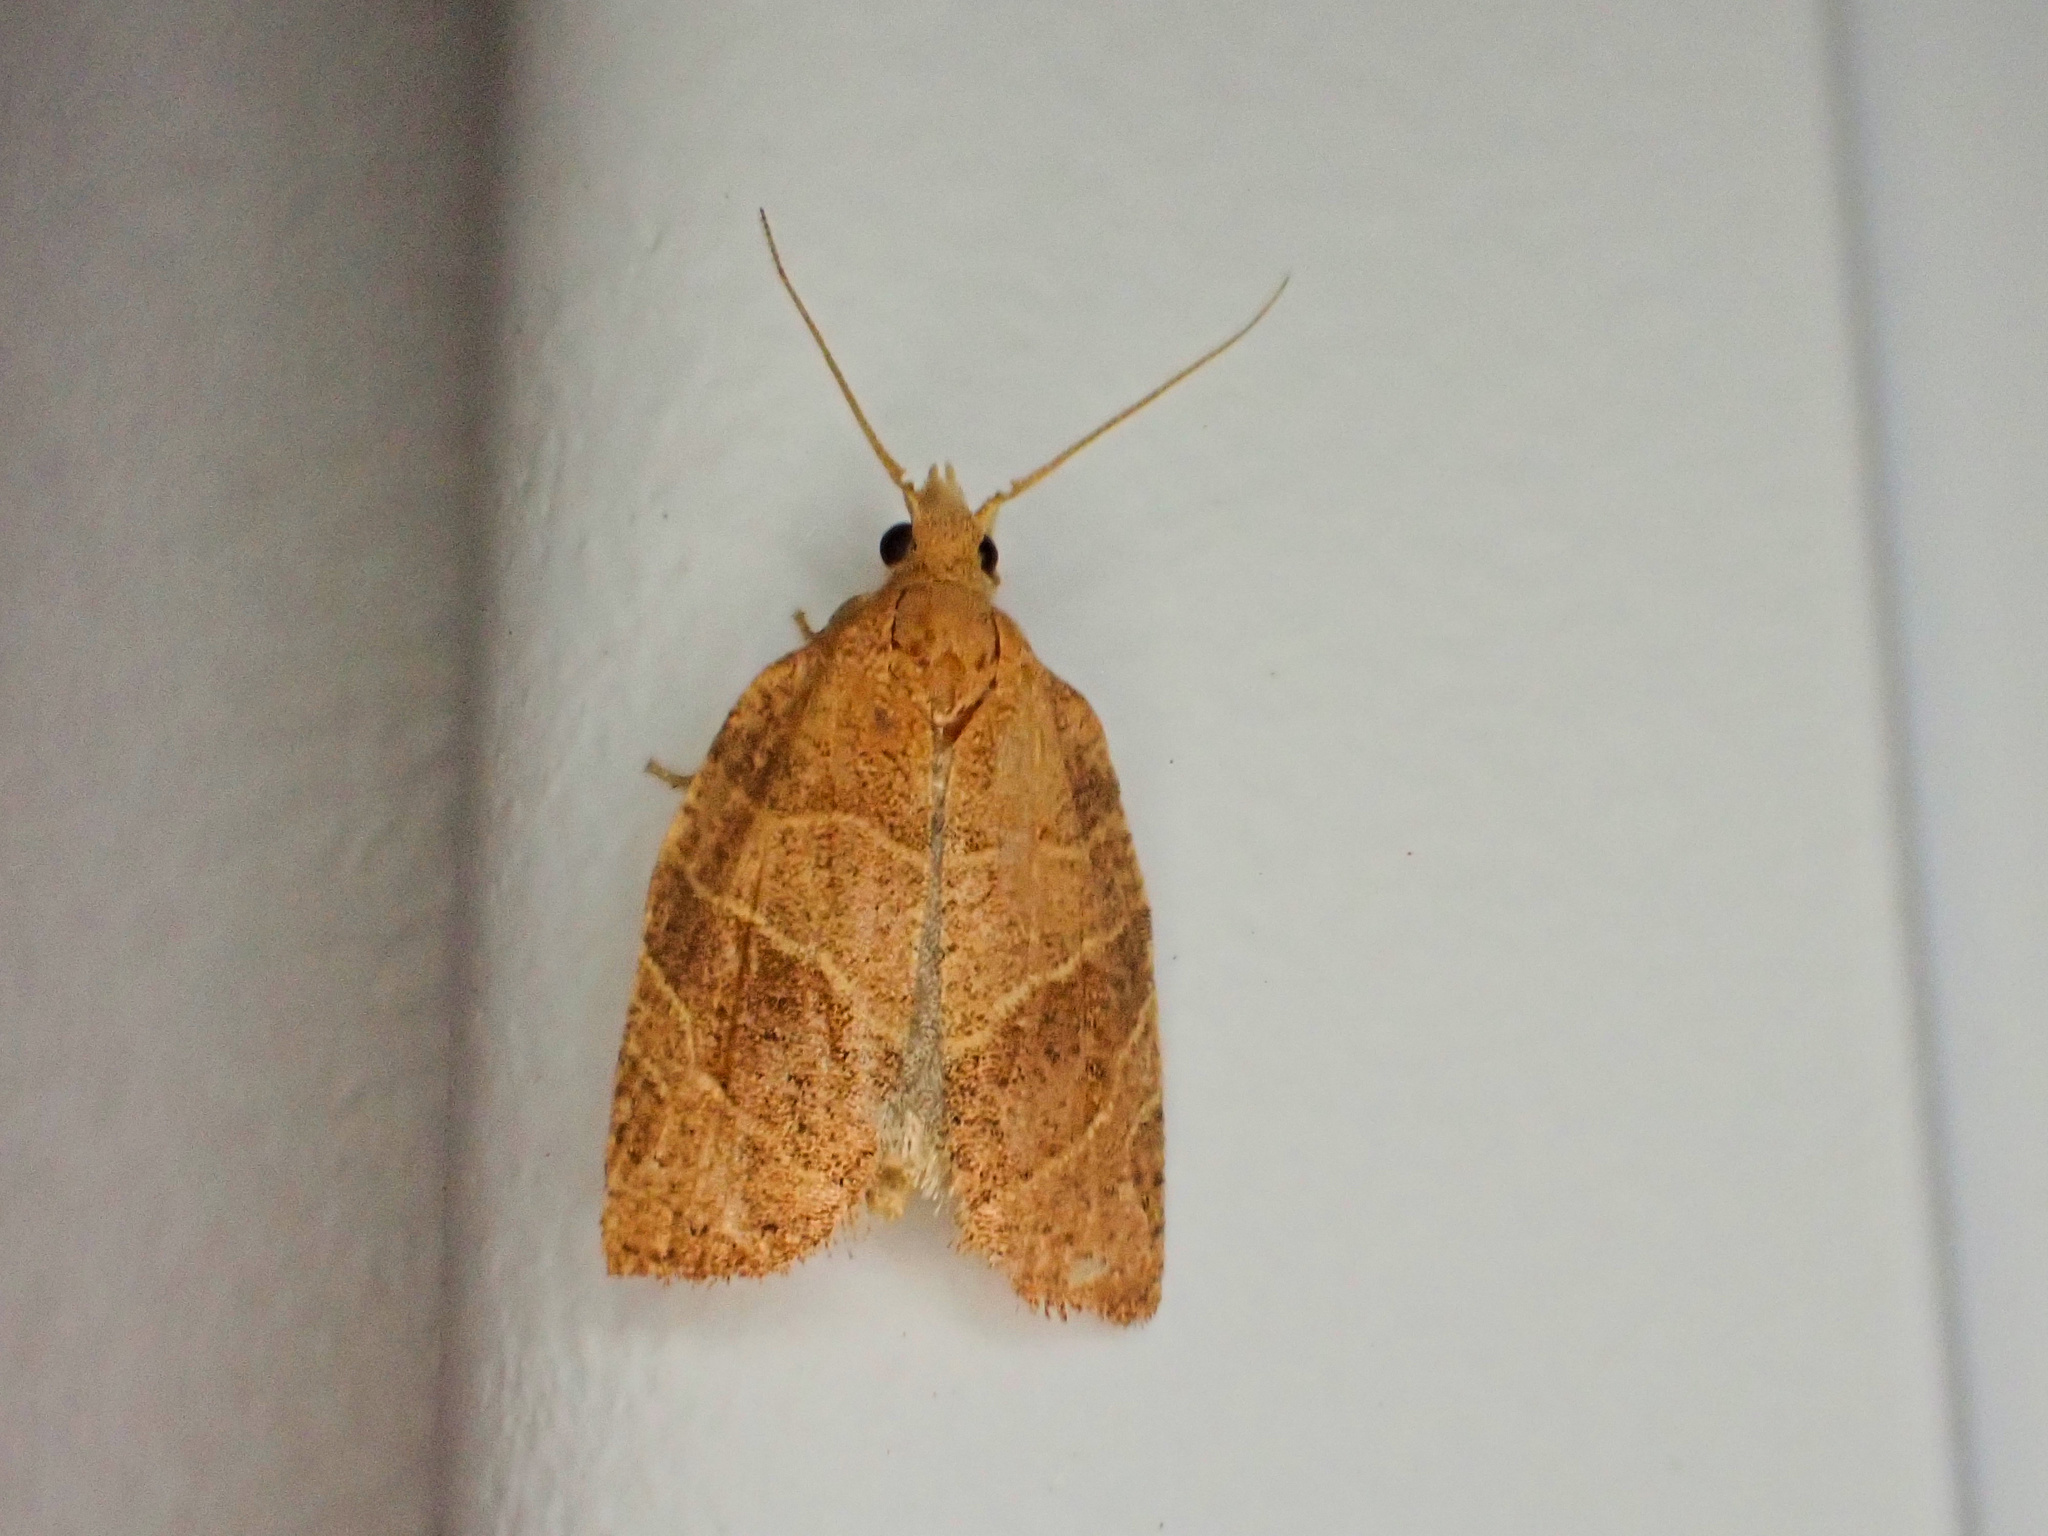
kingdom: Animalia
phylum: Arthropoda
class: Insecta
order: Lepidoptera
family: Tortricidae
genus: Pandemis
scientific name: Pandemis limitata
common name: Three-lined leafroller moth
